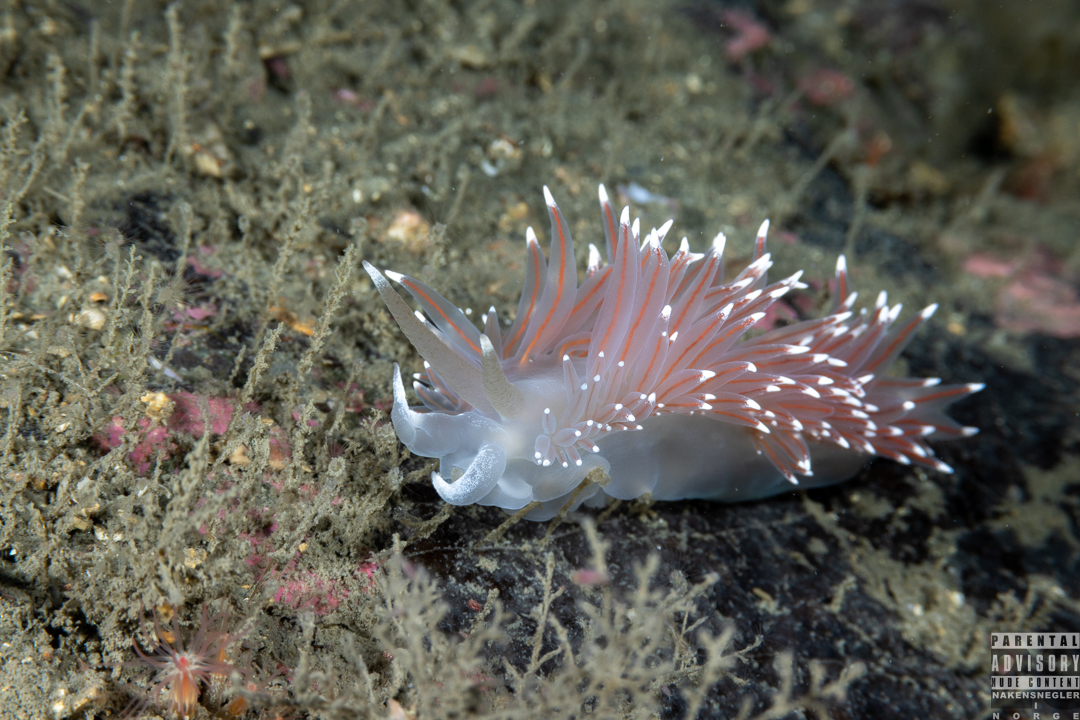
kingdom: Animalia
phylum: Mollusca
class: Gastropoda
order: Nudibranchia
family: Coryphellidae
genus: Coryphella
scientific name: Coryphella nobilis
